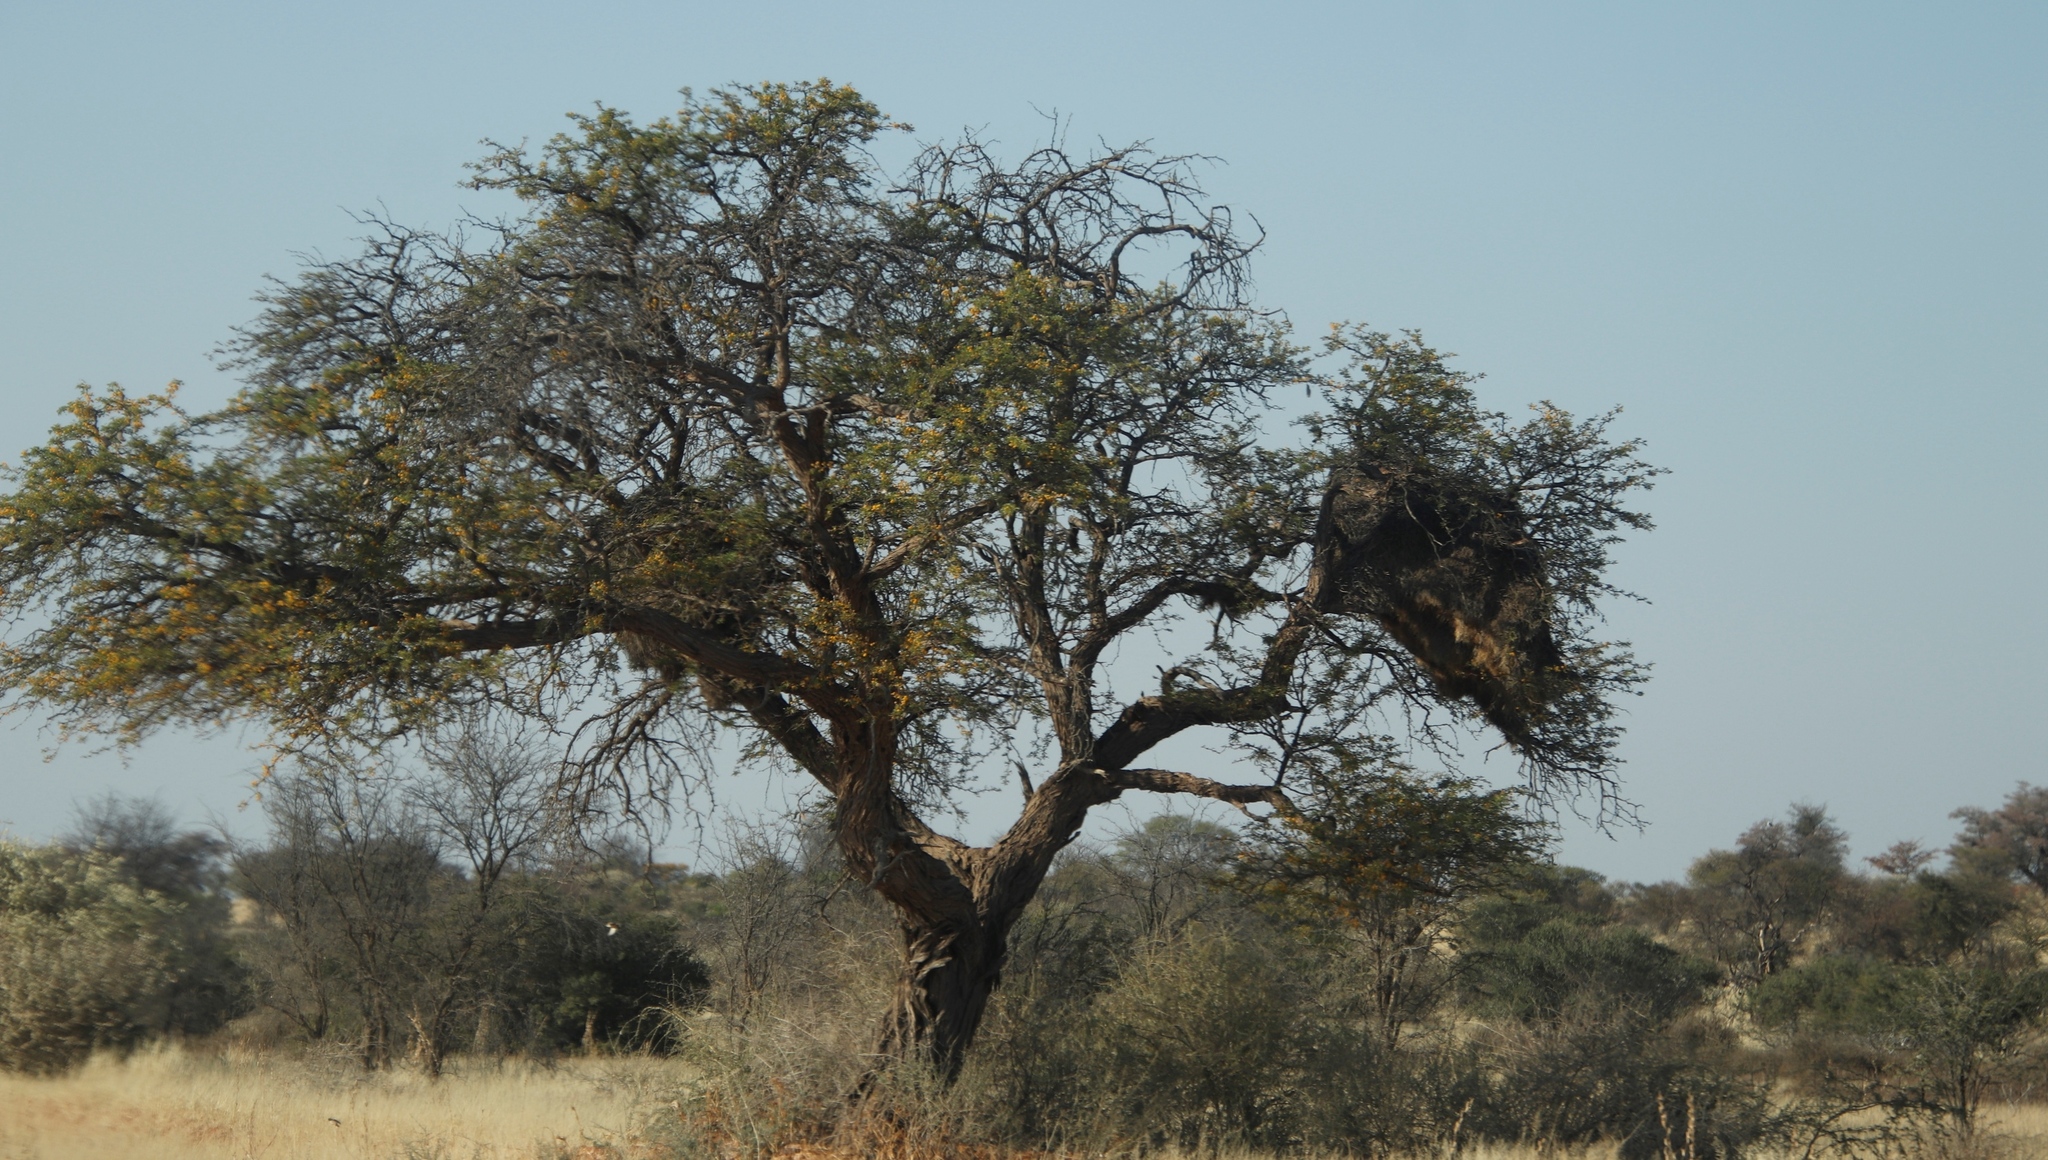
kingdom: Plantae
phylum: Tracheophyta
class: Magnoliopsida
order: Fabales
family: Fabaceae
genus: Vachellia
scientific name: Vachellia erioloba
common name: Camel thorn
